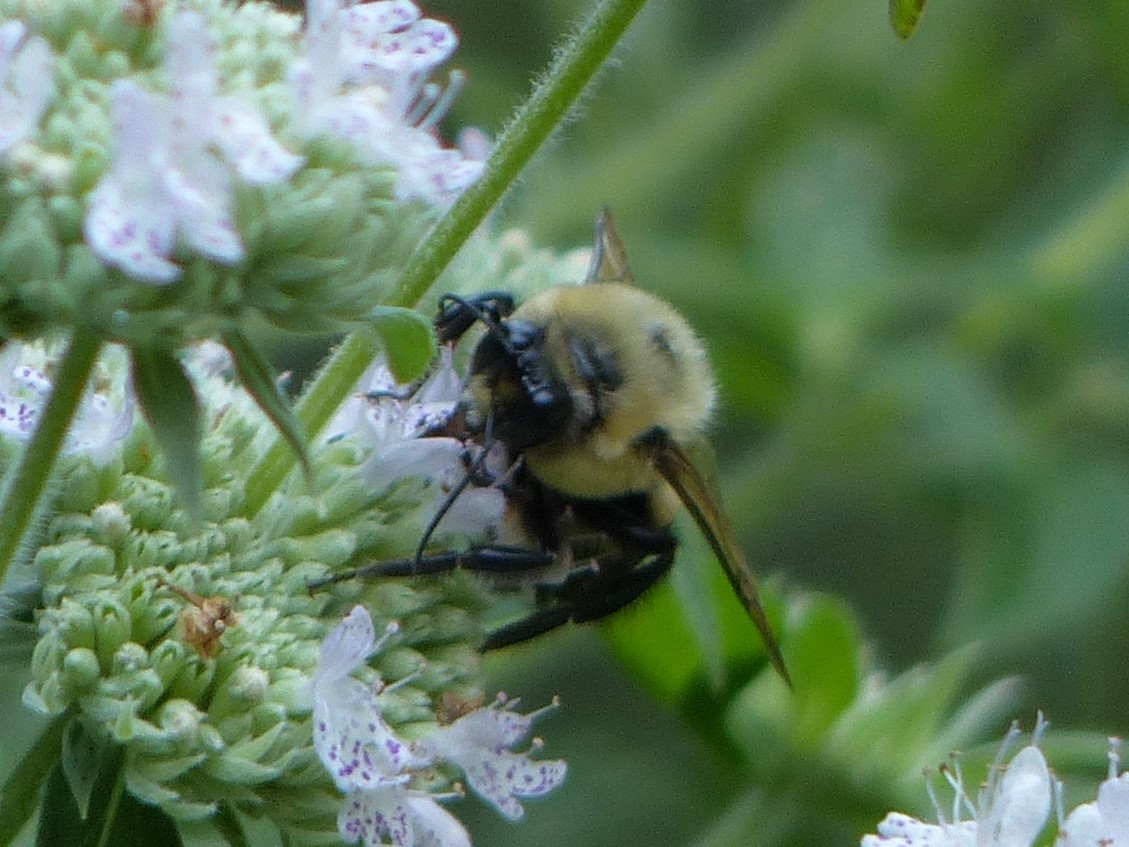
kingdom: Animalia
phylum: Arthropoda
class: Insecta
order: Hymenoptera
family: Apidae
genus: Bombus
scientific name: Bombus griseocollis
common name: Brown-belted bumble bee
